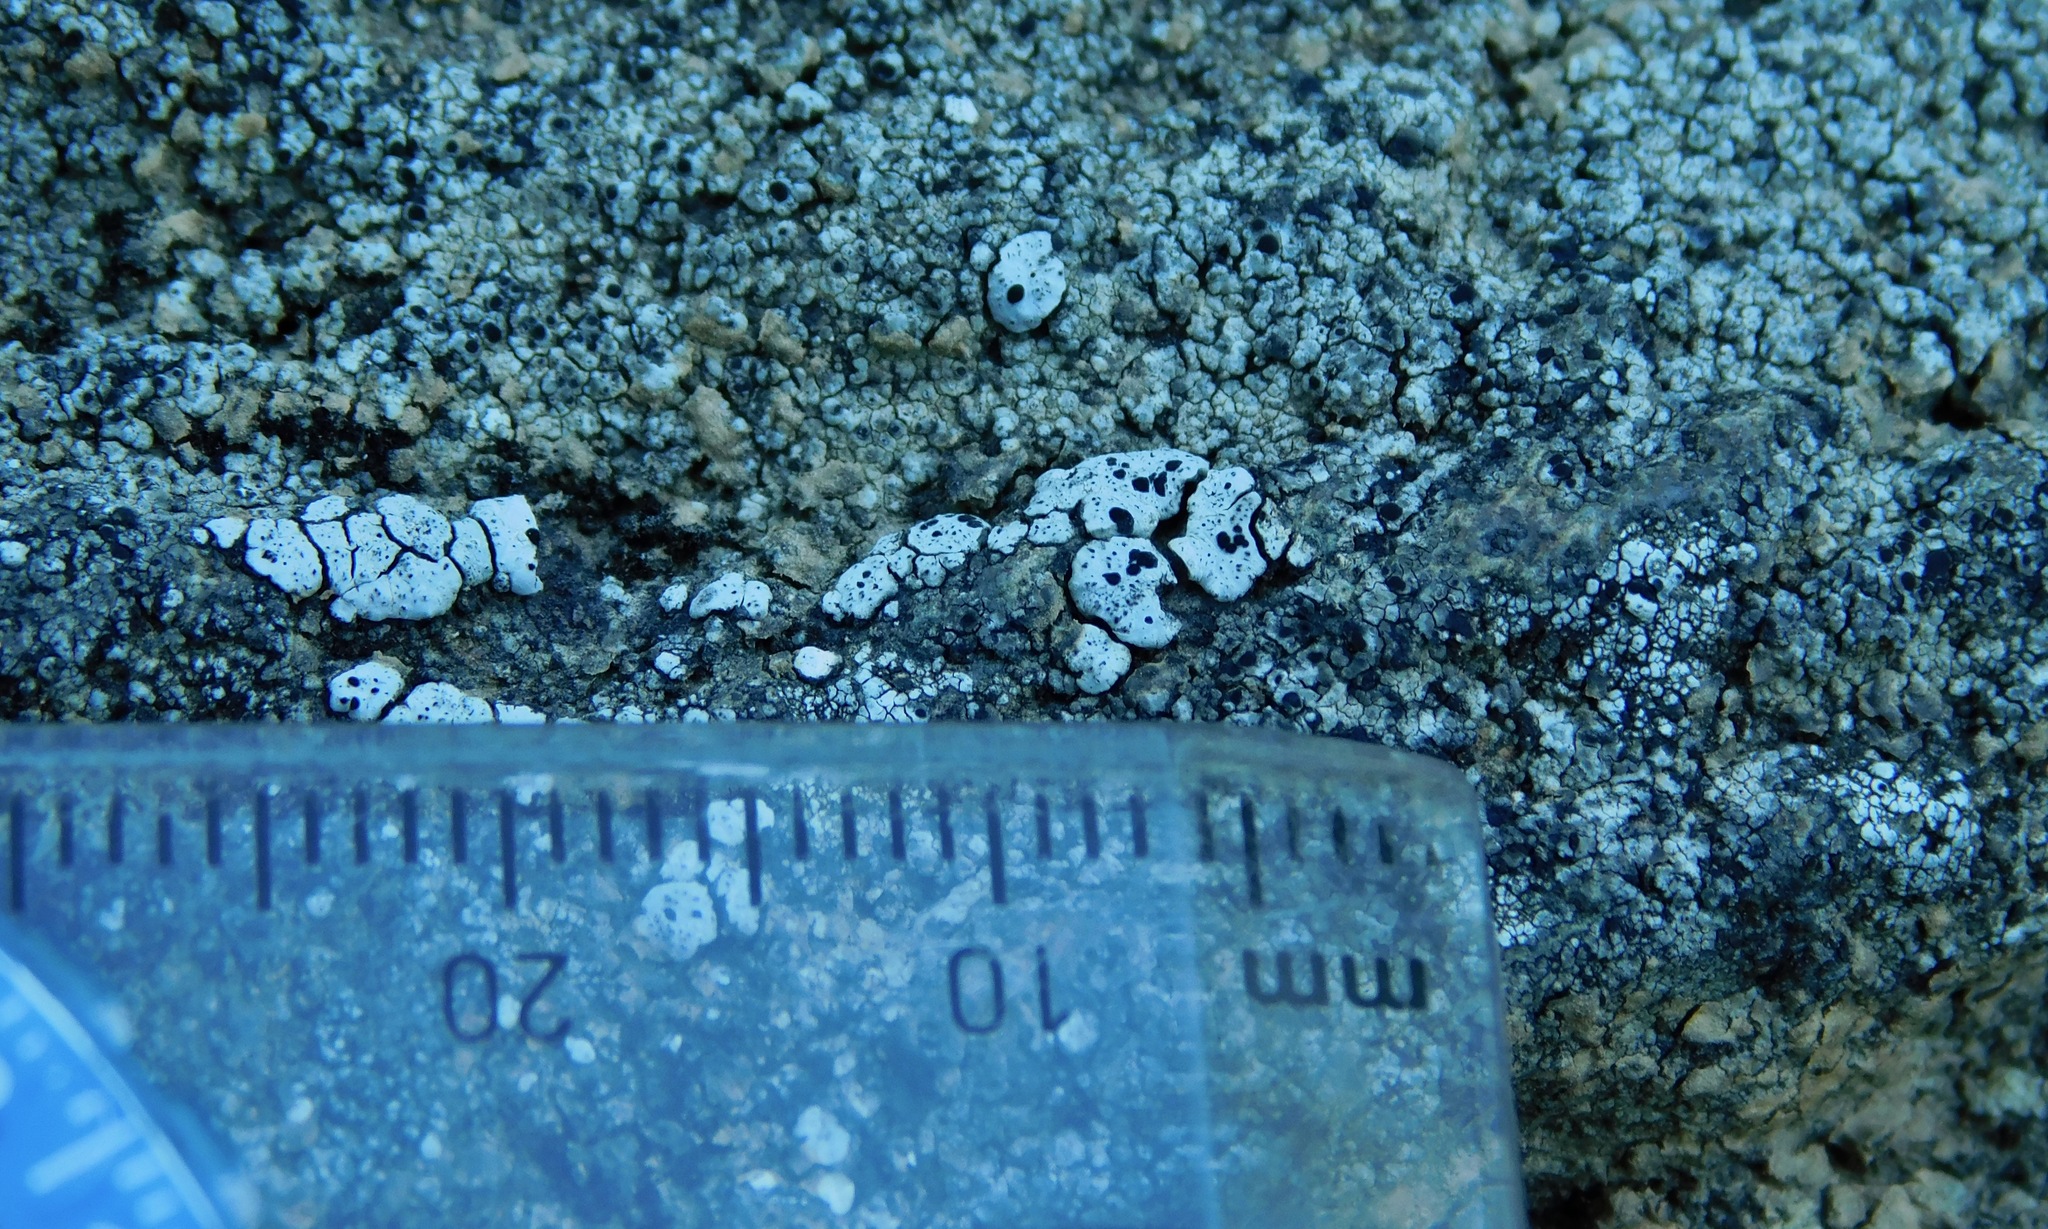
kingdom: Fungi
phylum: Ascomycota
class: Lecanoromycetes
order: Caliciales
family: Caliciaceae
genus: Dermiscellum
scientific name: Dermiscellum oulocheilum
